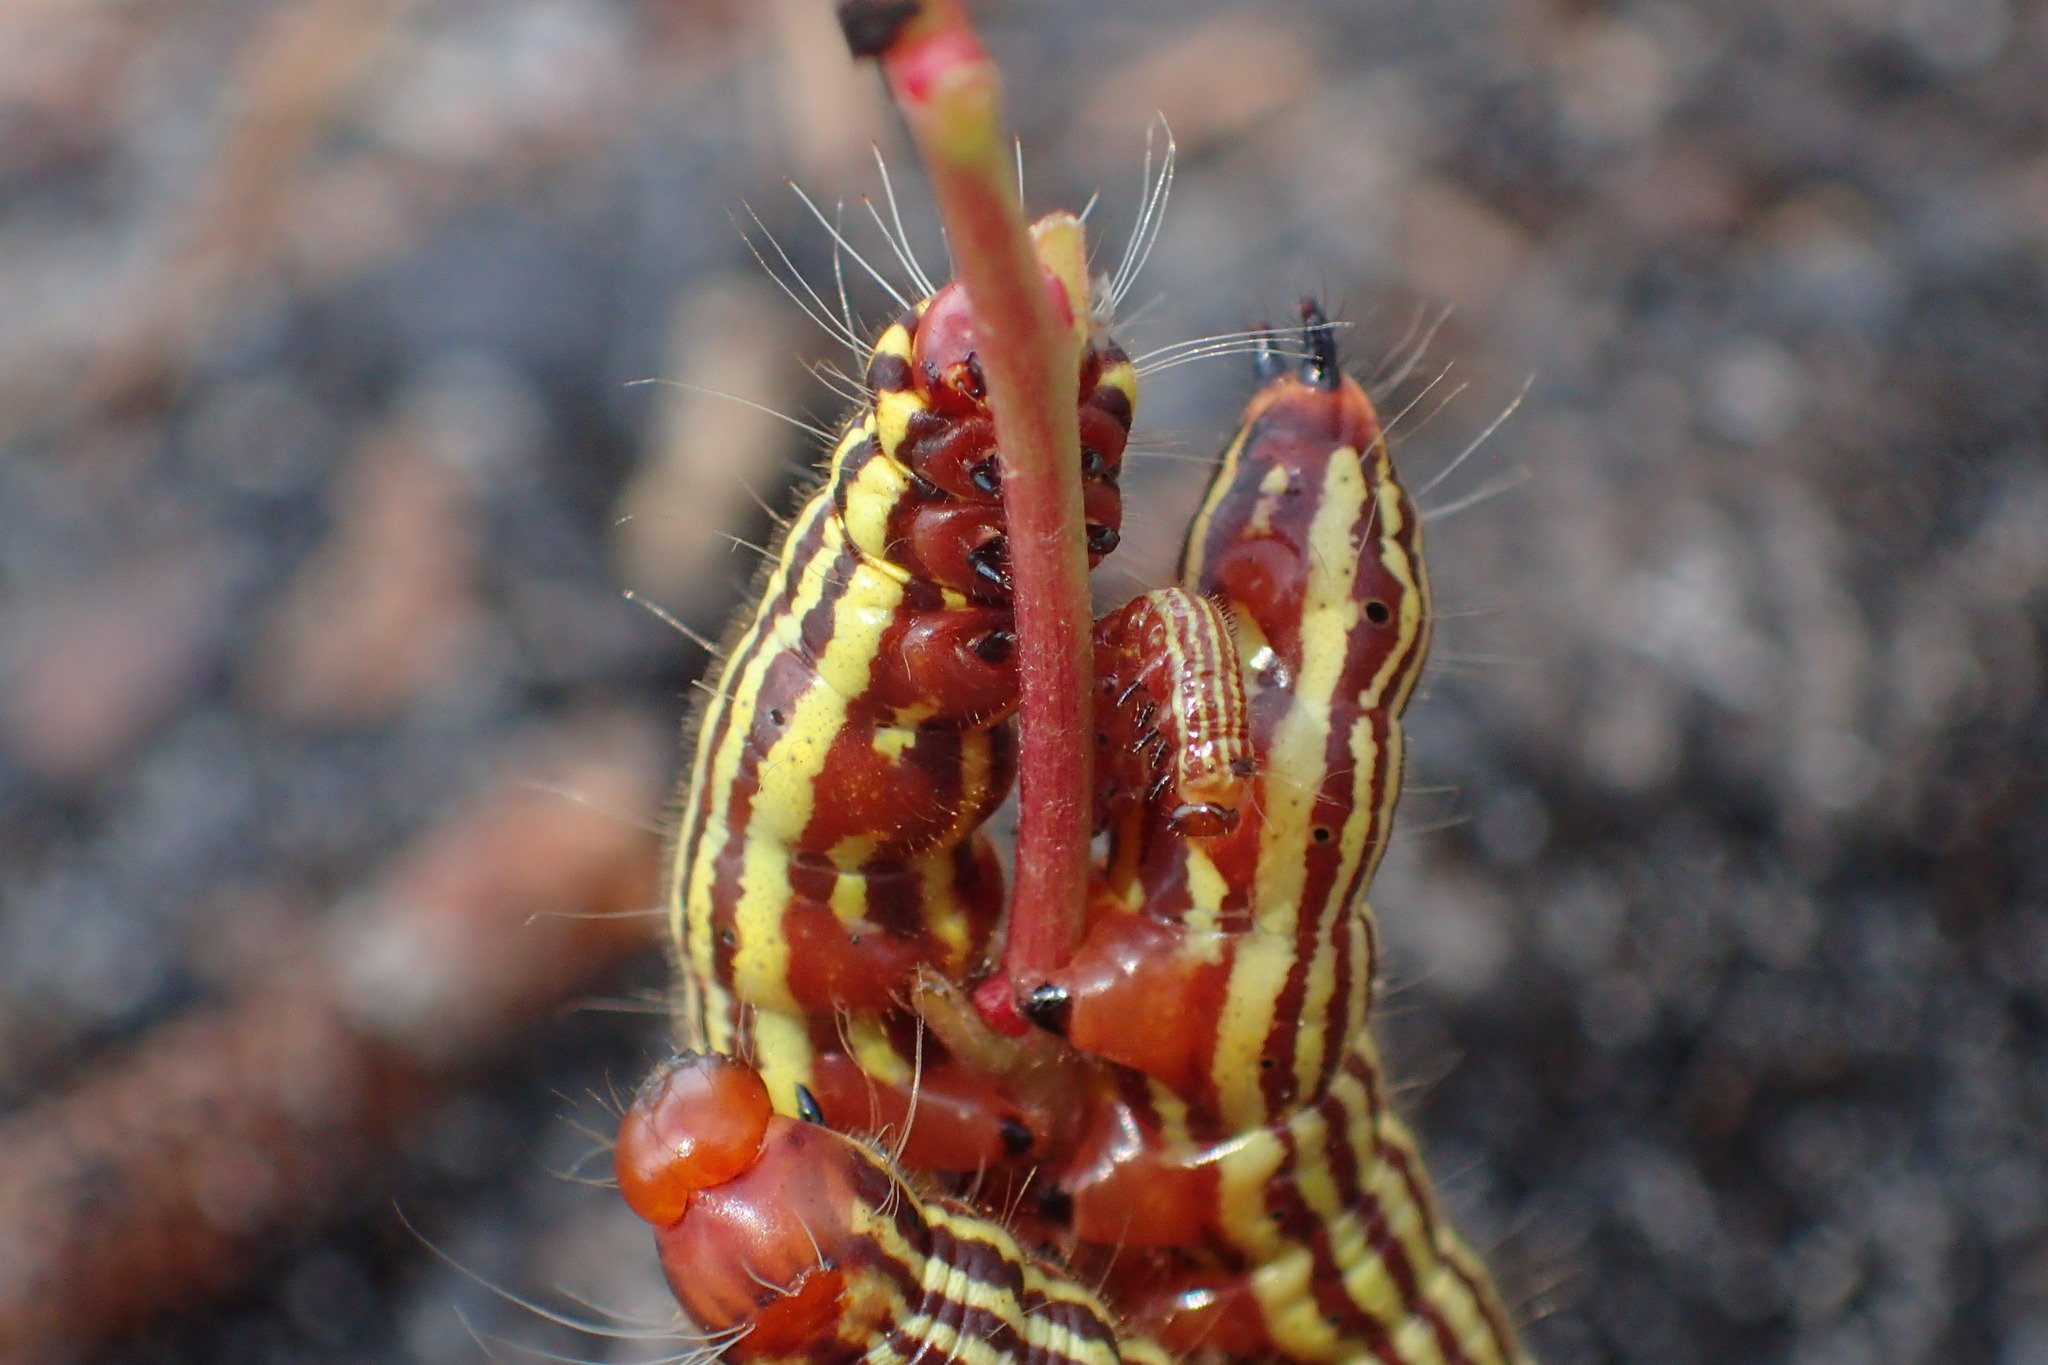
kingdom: Animalia
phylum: Arthropoda
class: Insecta
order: Lepidoptera
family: Notodontidae
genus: Datana
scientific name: Datana major
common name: Azalea caterpillar
